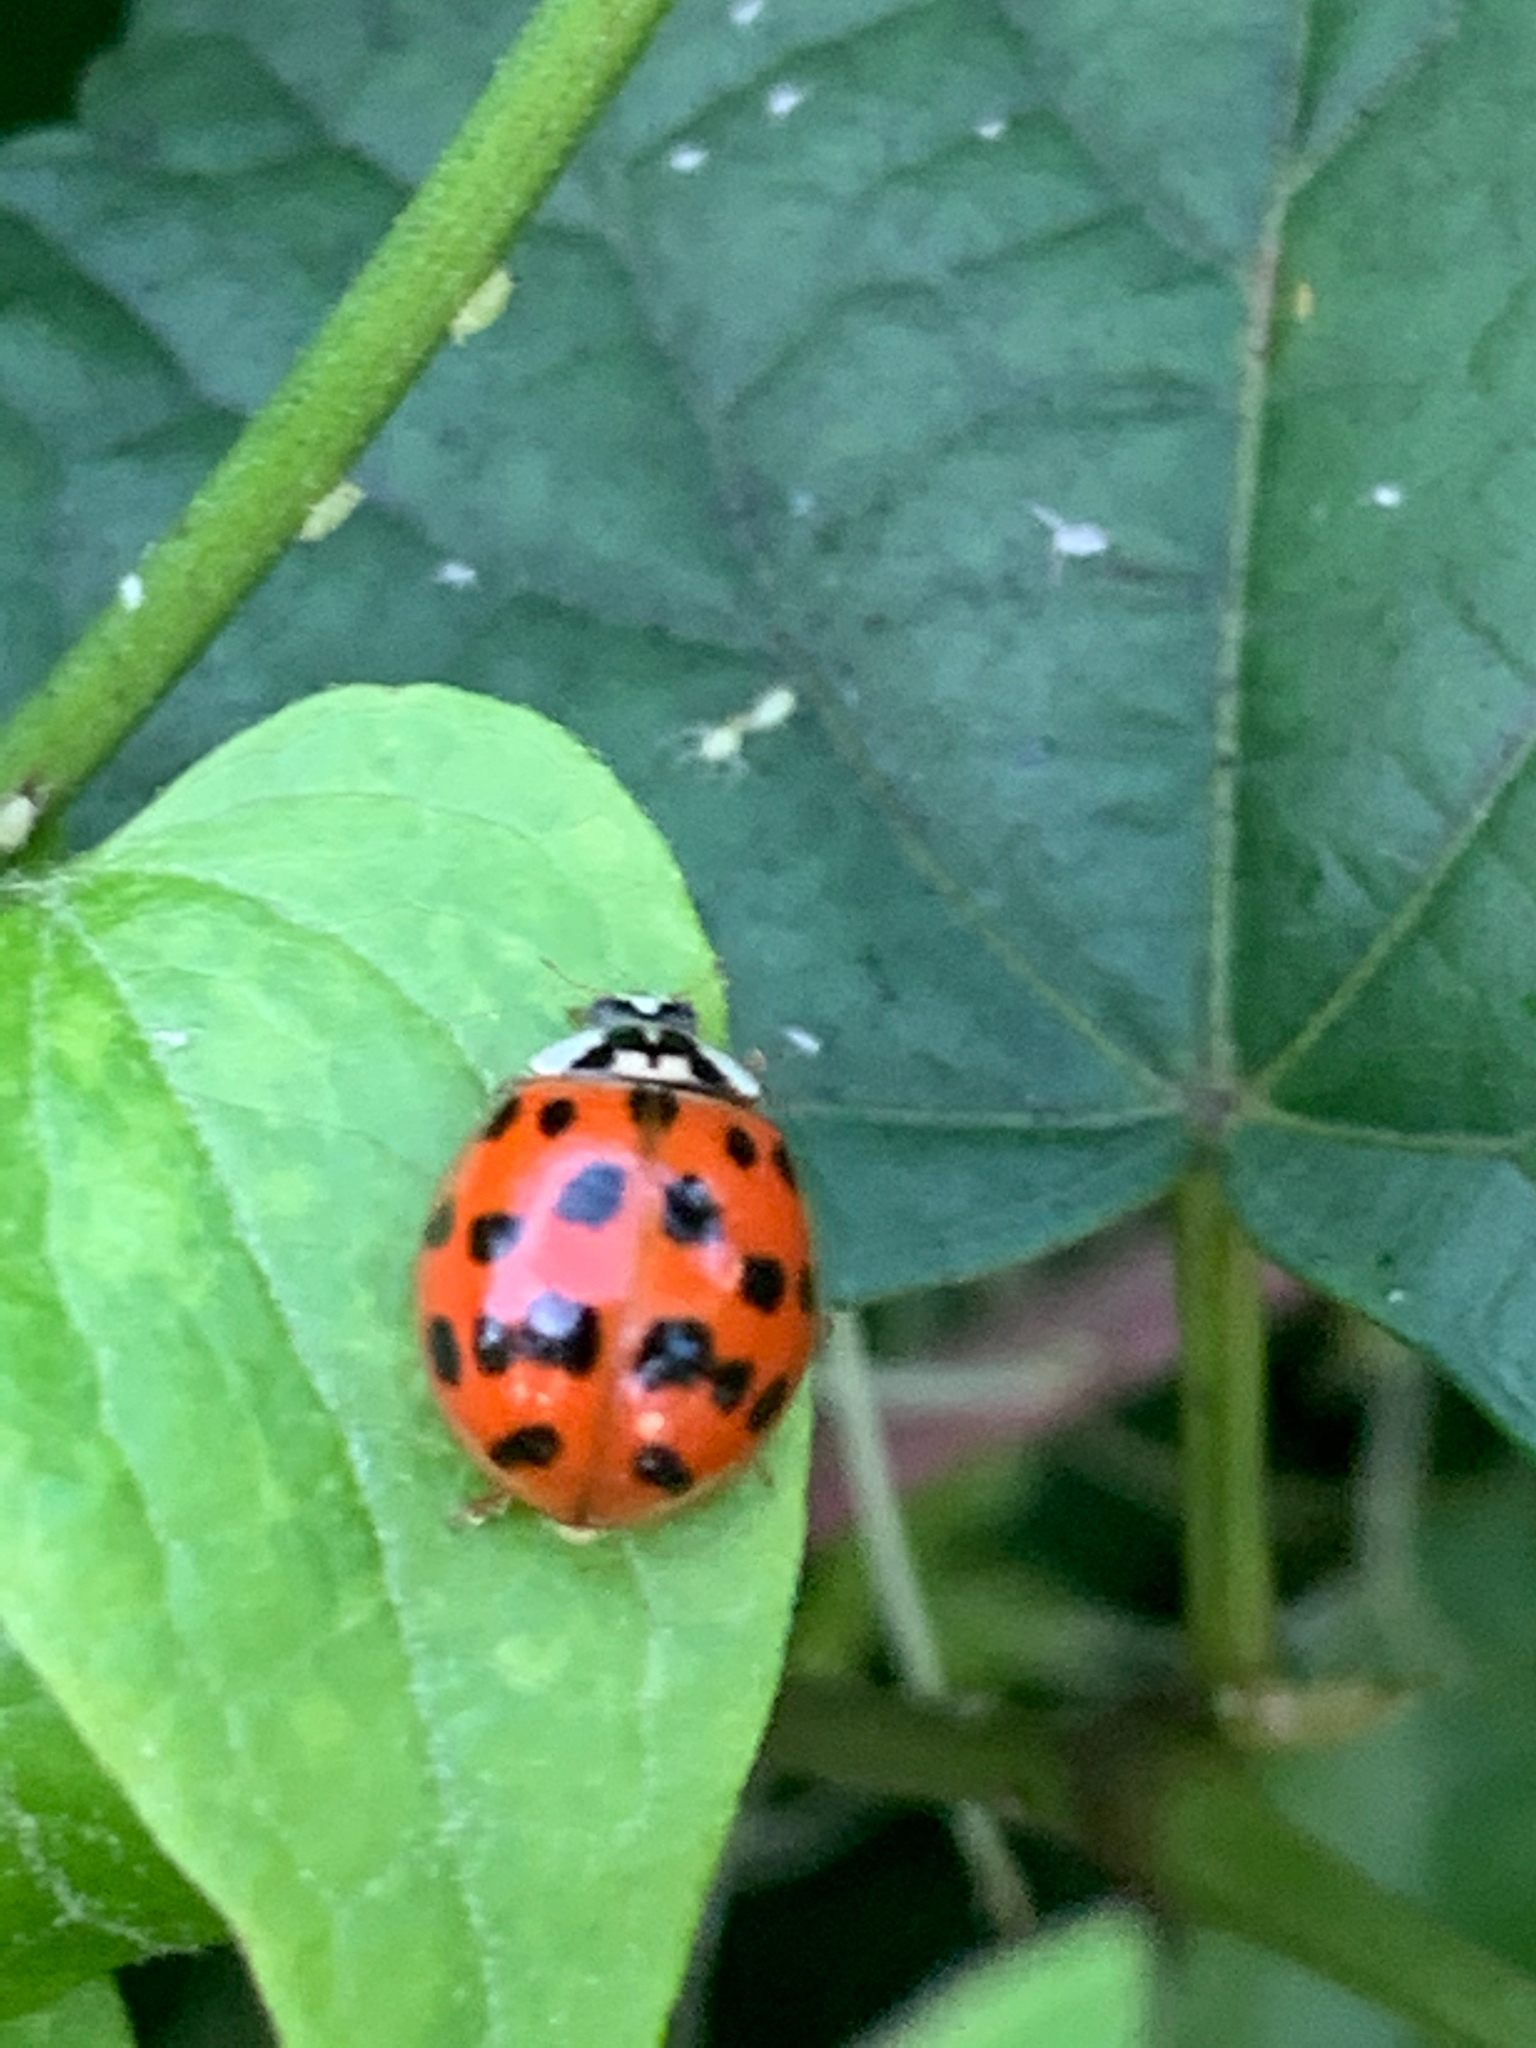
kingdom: Animalia
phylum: Arthropoda
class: Insecta
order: Coleoptera
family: Coccinellidae
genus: Harmonia
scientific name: Harmonia axyridis
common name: Harlequin ladybird
